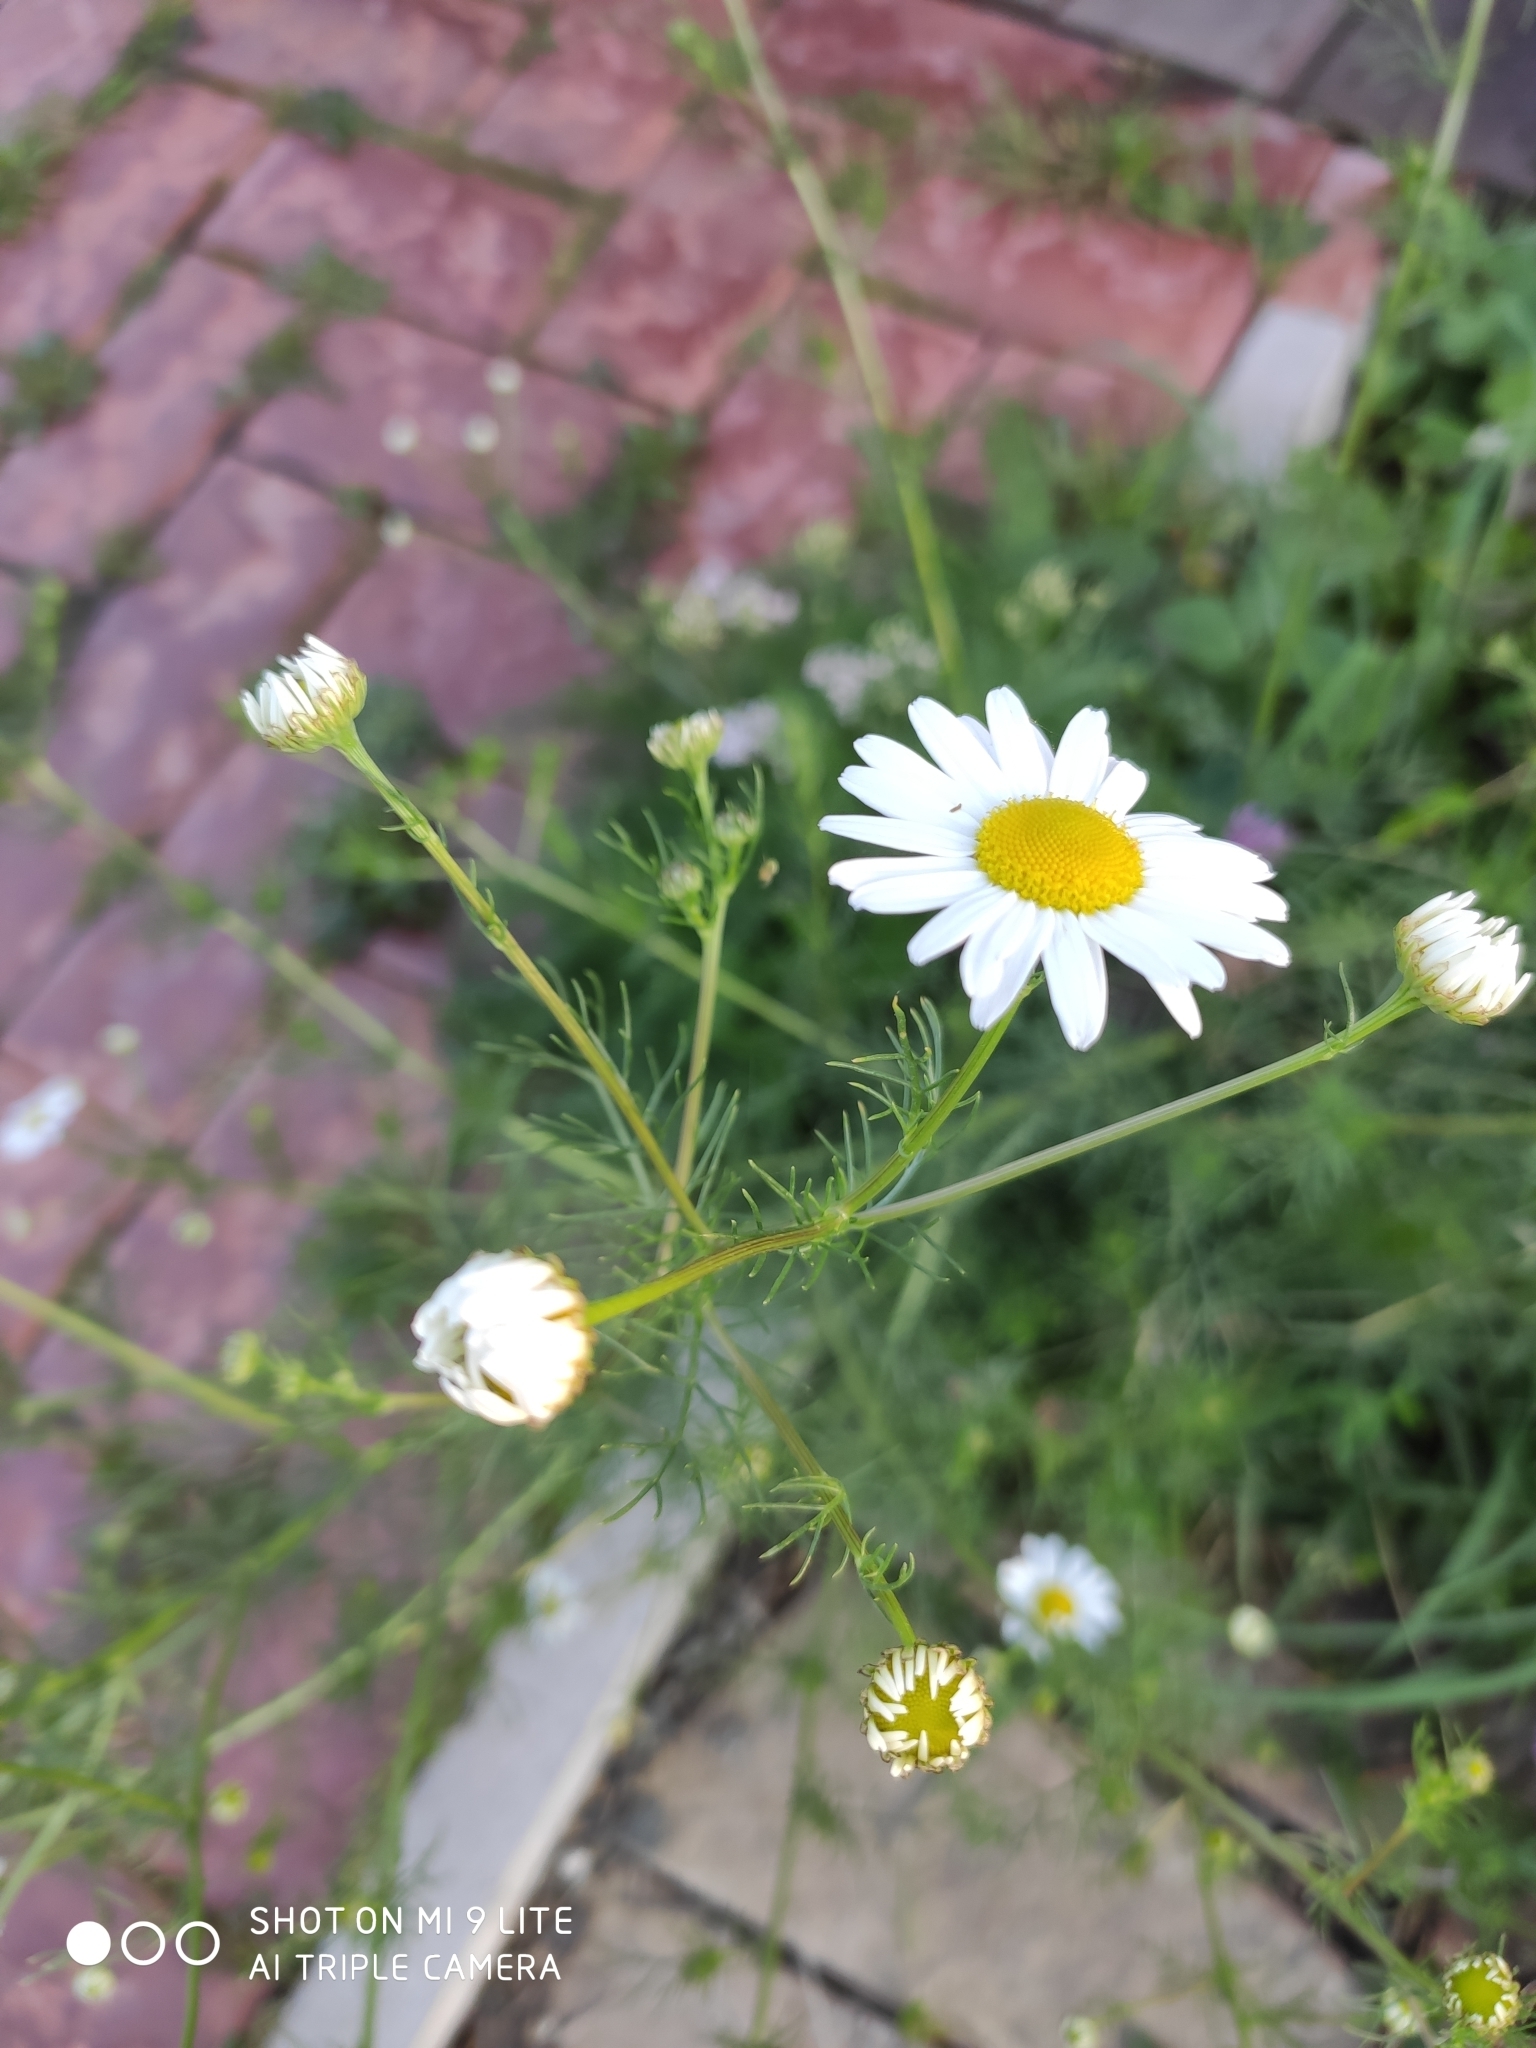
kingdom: Plantae
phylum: Tracheophyta
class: Magnoliopsida
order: Asterales
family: Asteraceae
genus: Tripleurospermum
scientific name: Tripleurospermum inodorum
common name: Scentless mayweed
